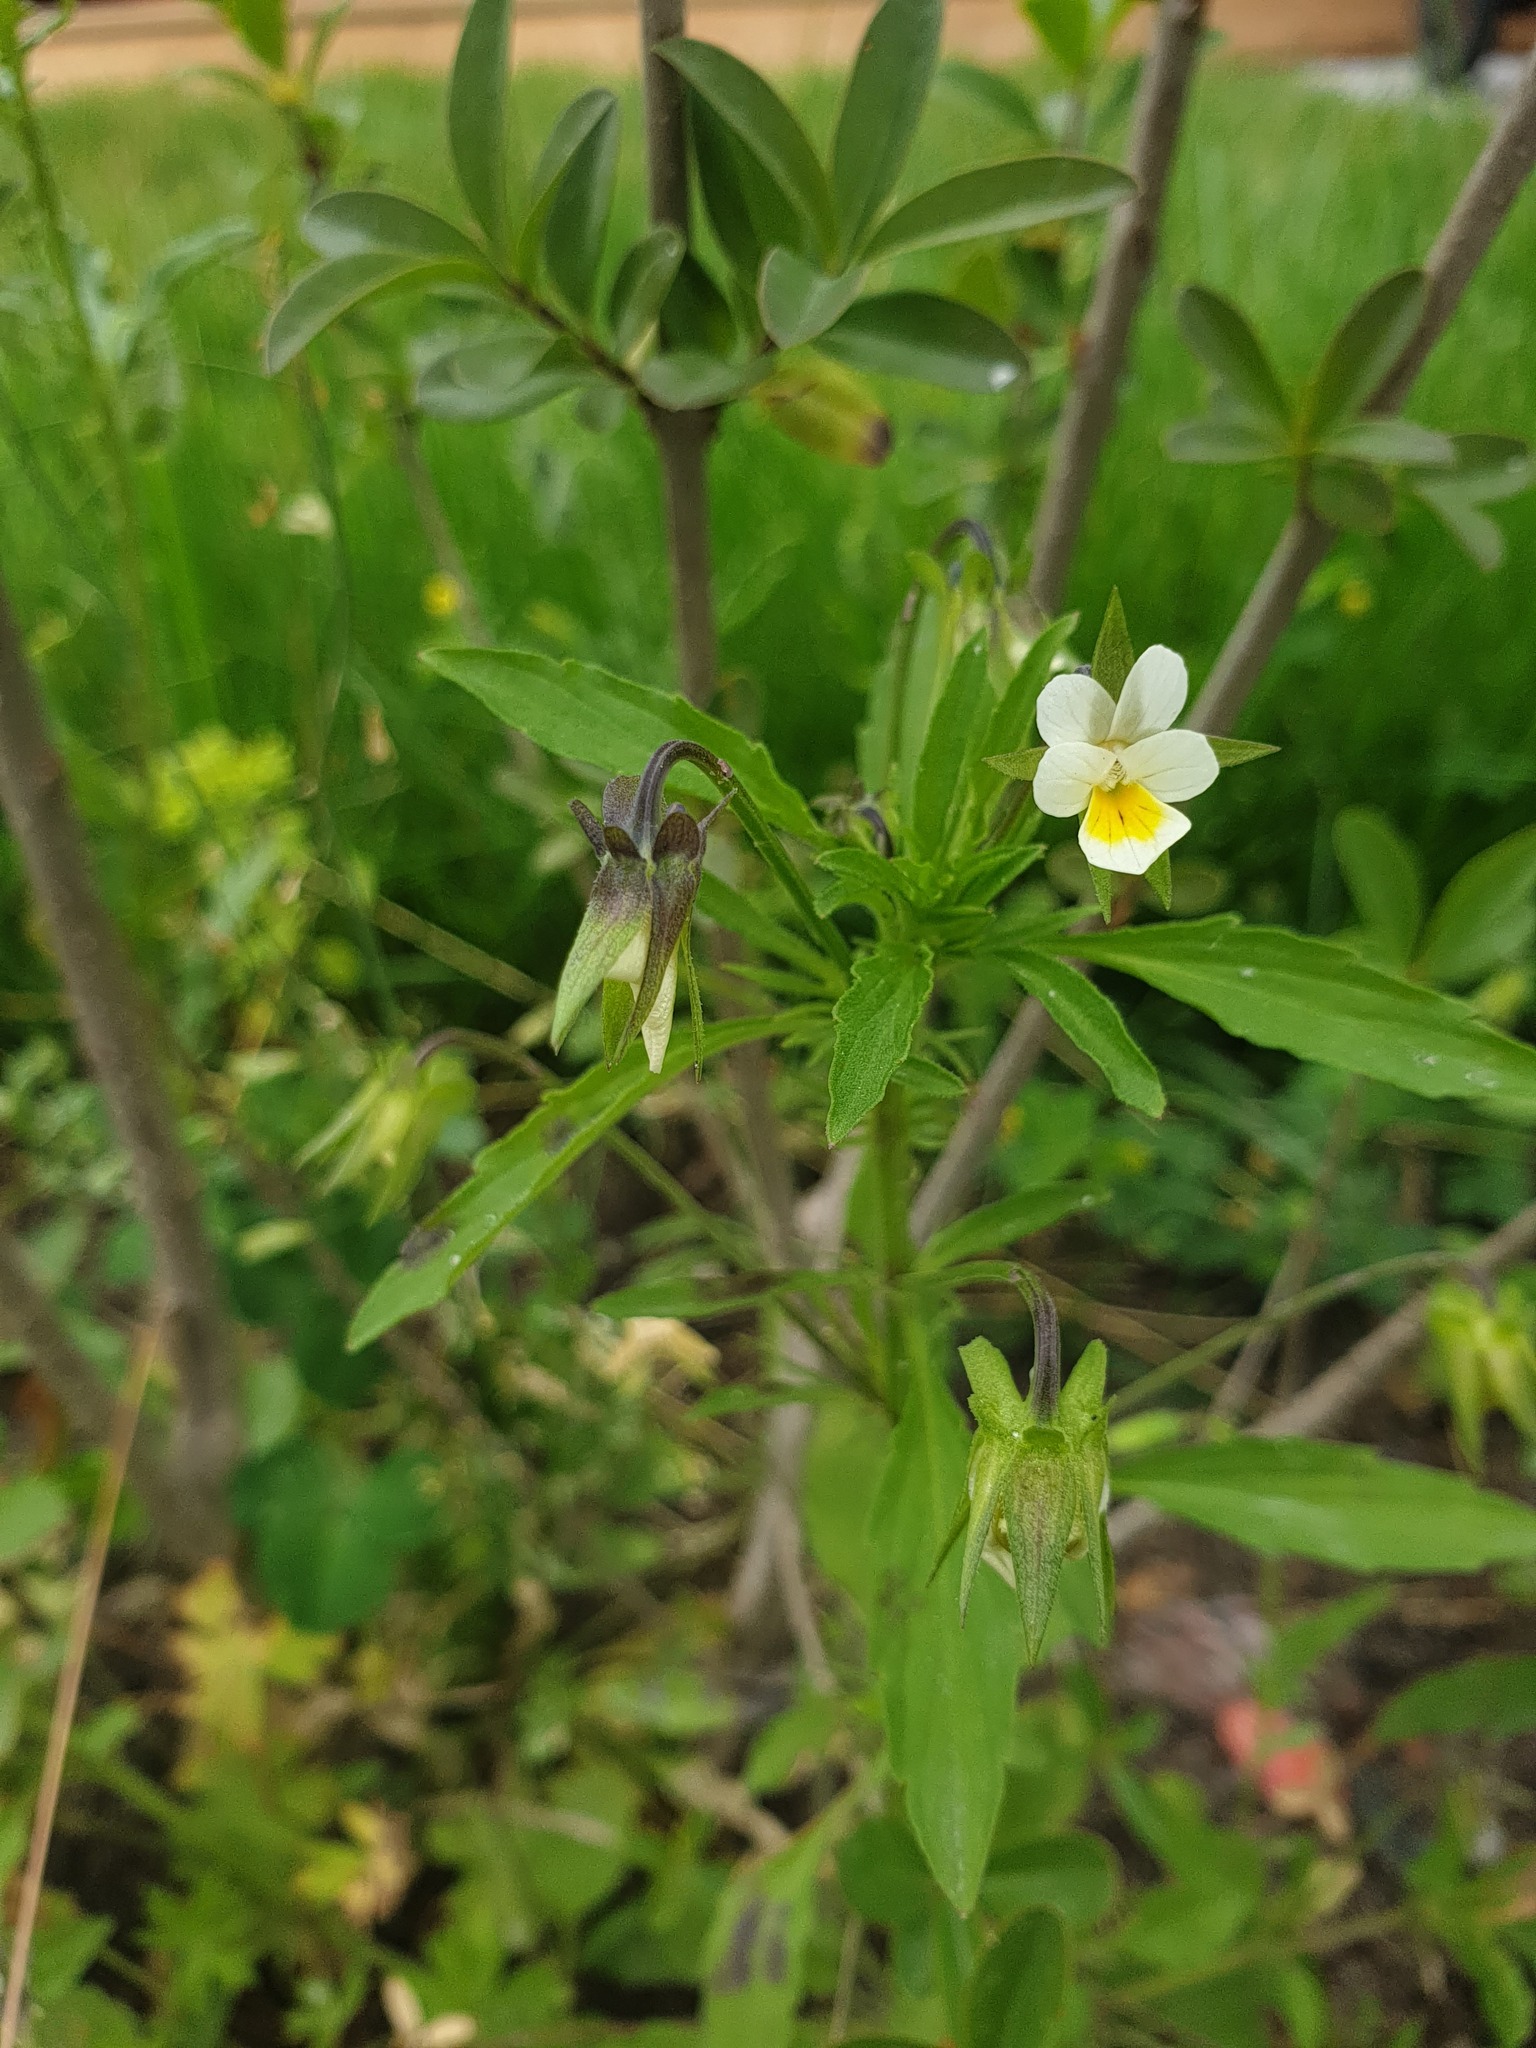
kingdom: Plantae
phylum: Tracheophyta
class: Magnoliopsida
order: Malpighiales
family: Violaceae
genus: Viola
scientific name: Viola arvensis
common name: Field pansy
